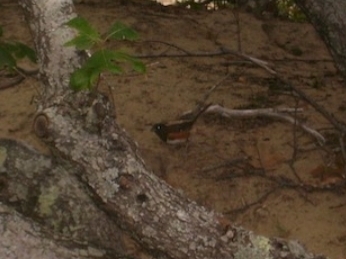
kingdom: Animalia
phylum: Chordata
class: Aves
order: Passeriformes
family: Passerellidae
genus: Pipilo
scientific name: Pipilo erythrophthalmus
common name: Eastern towhee
